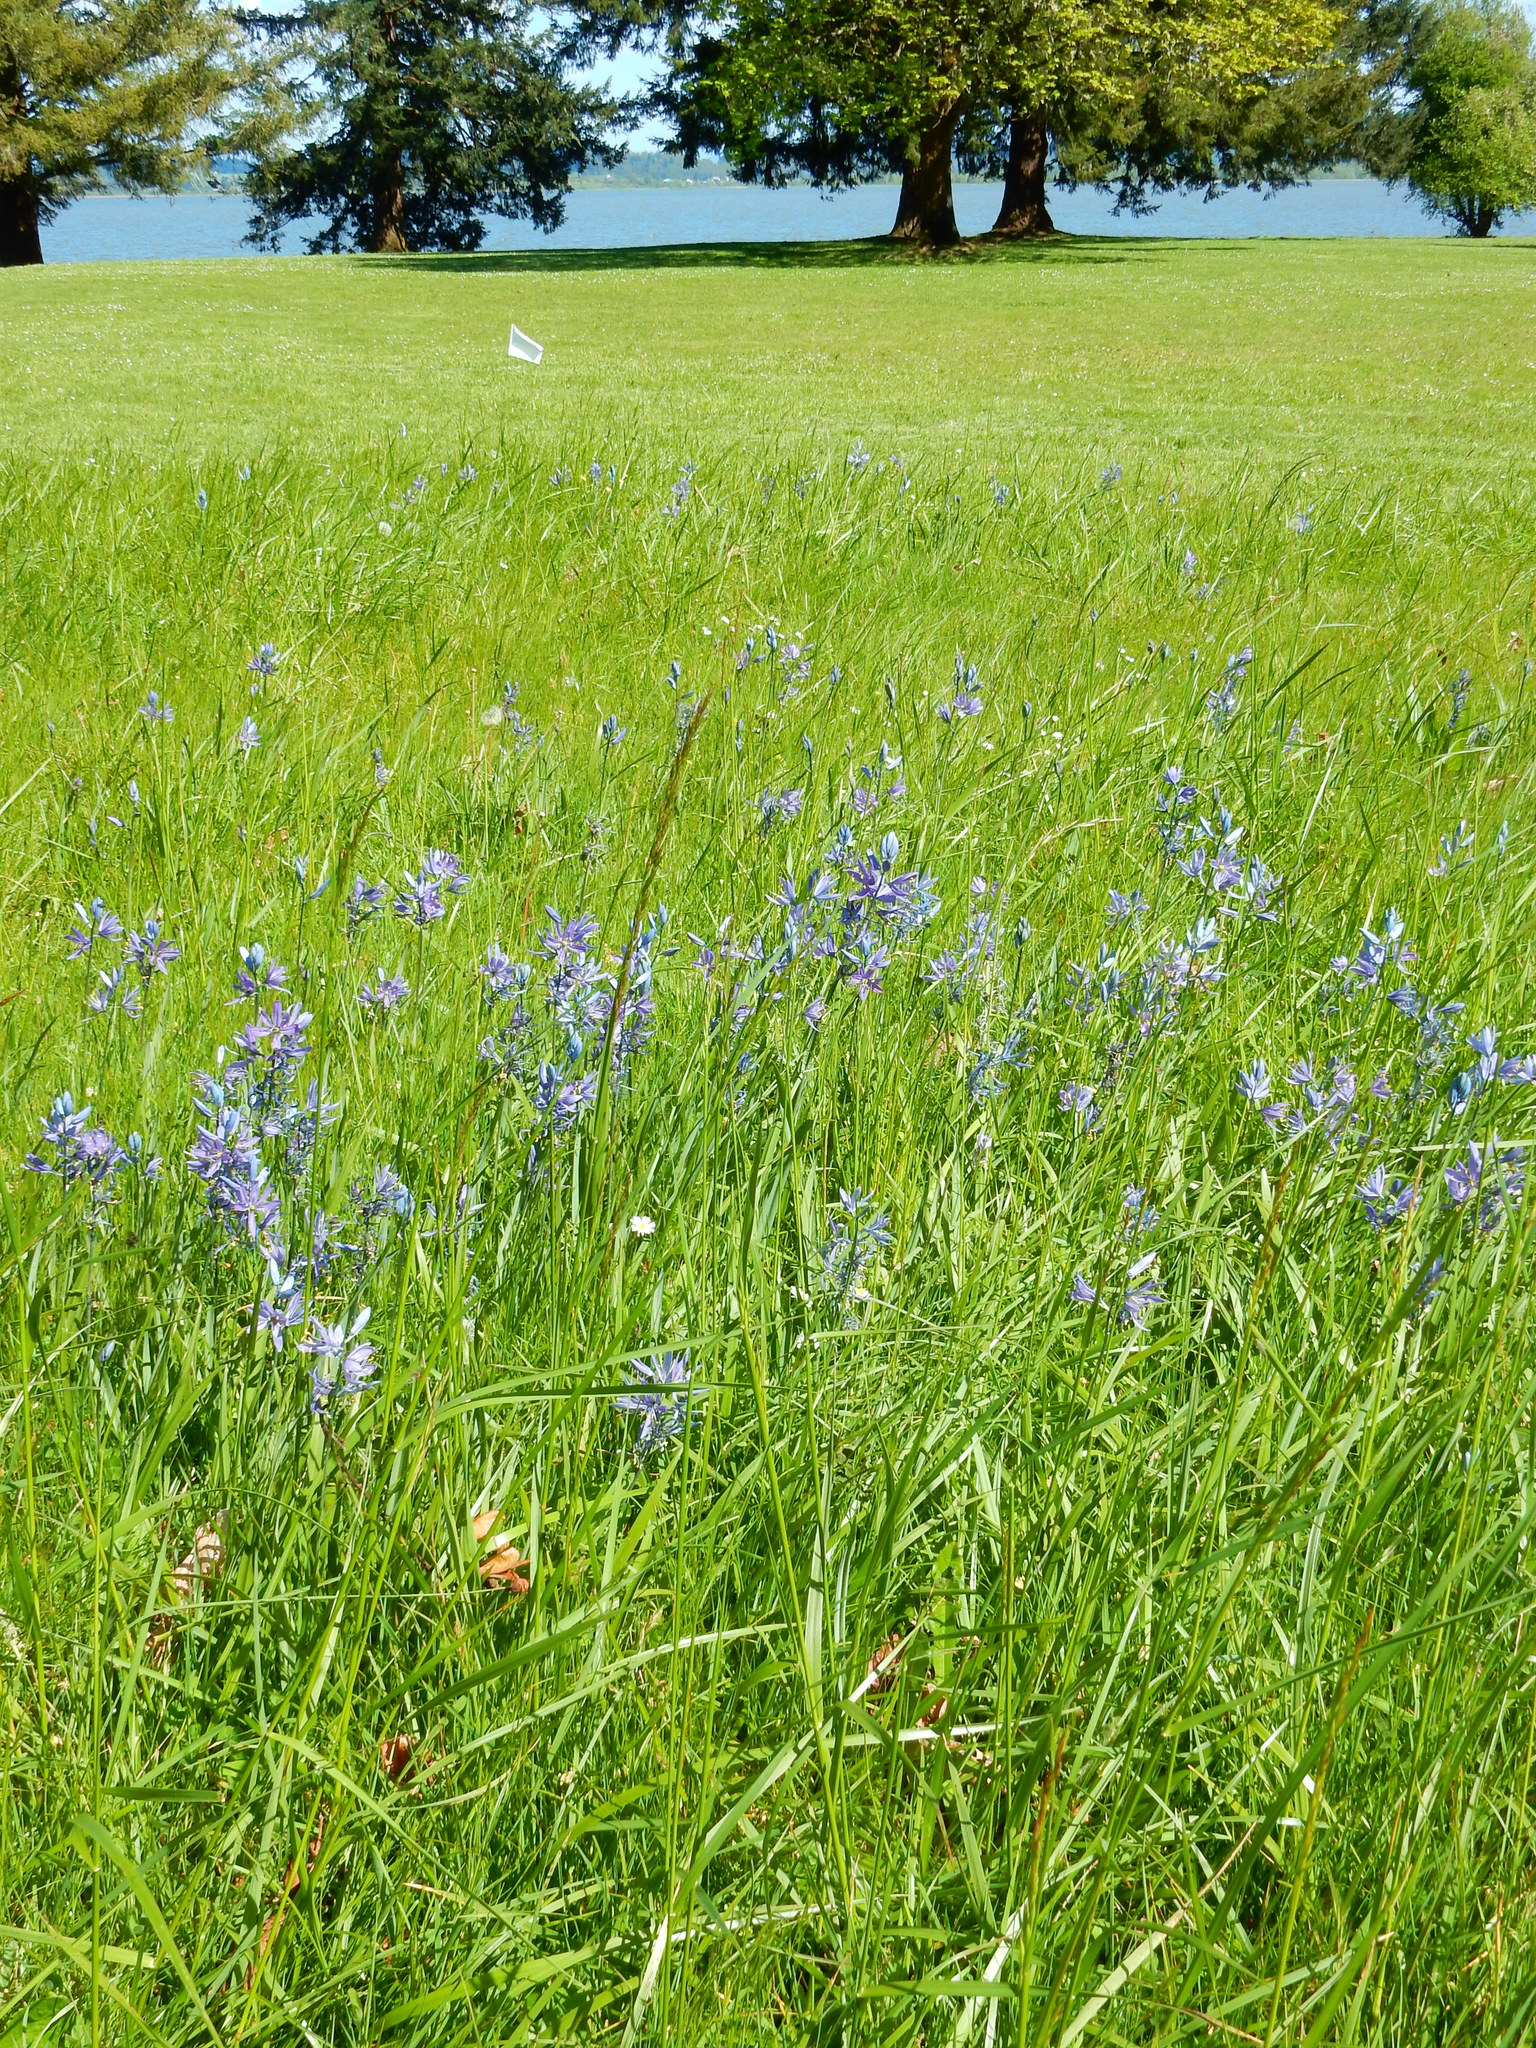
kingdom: Plantae
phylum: Tracheophyta
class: Liliopsida
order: Asparagales
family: Asparagaceae
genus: Camassia
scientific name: Camassia quamash
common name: Common camas
